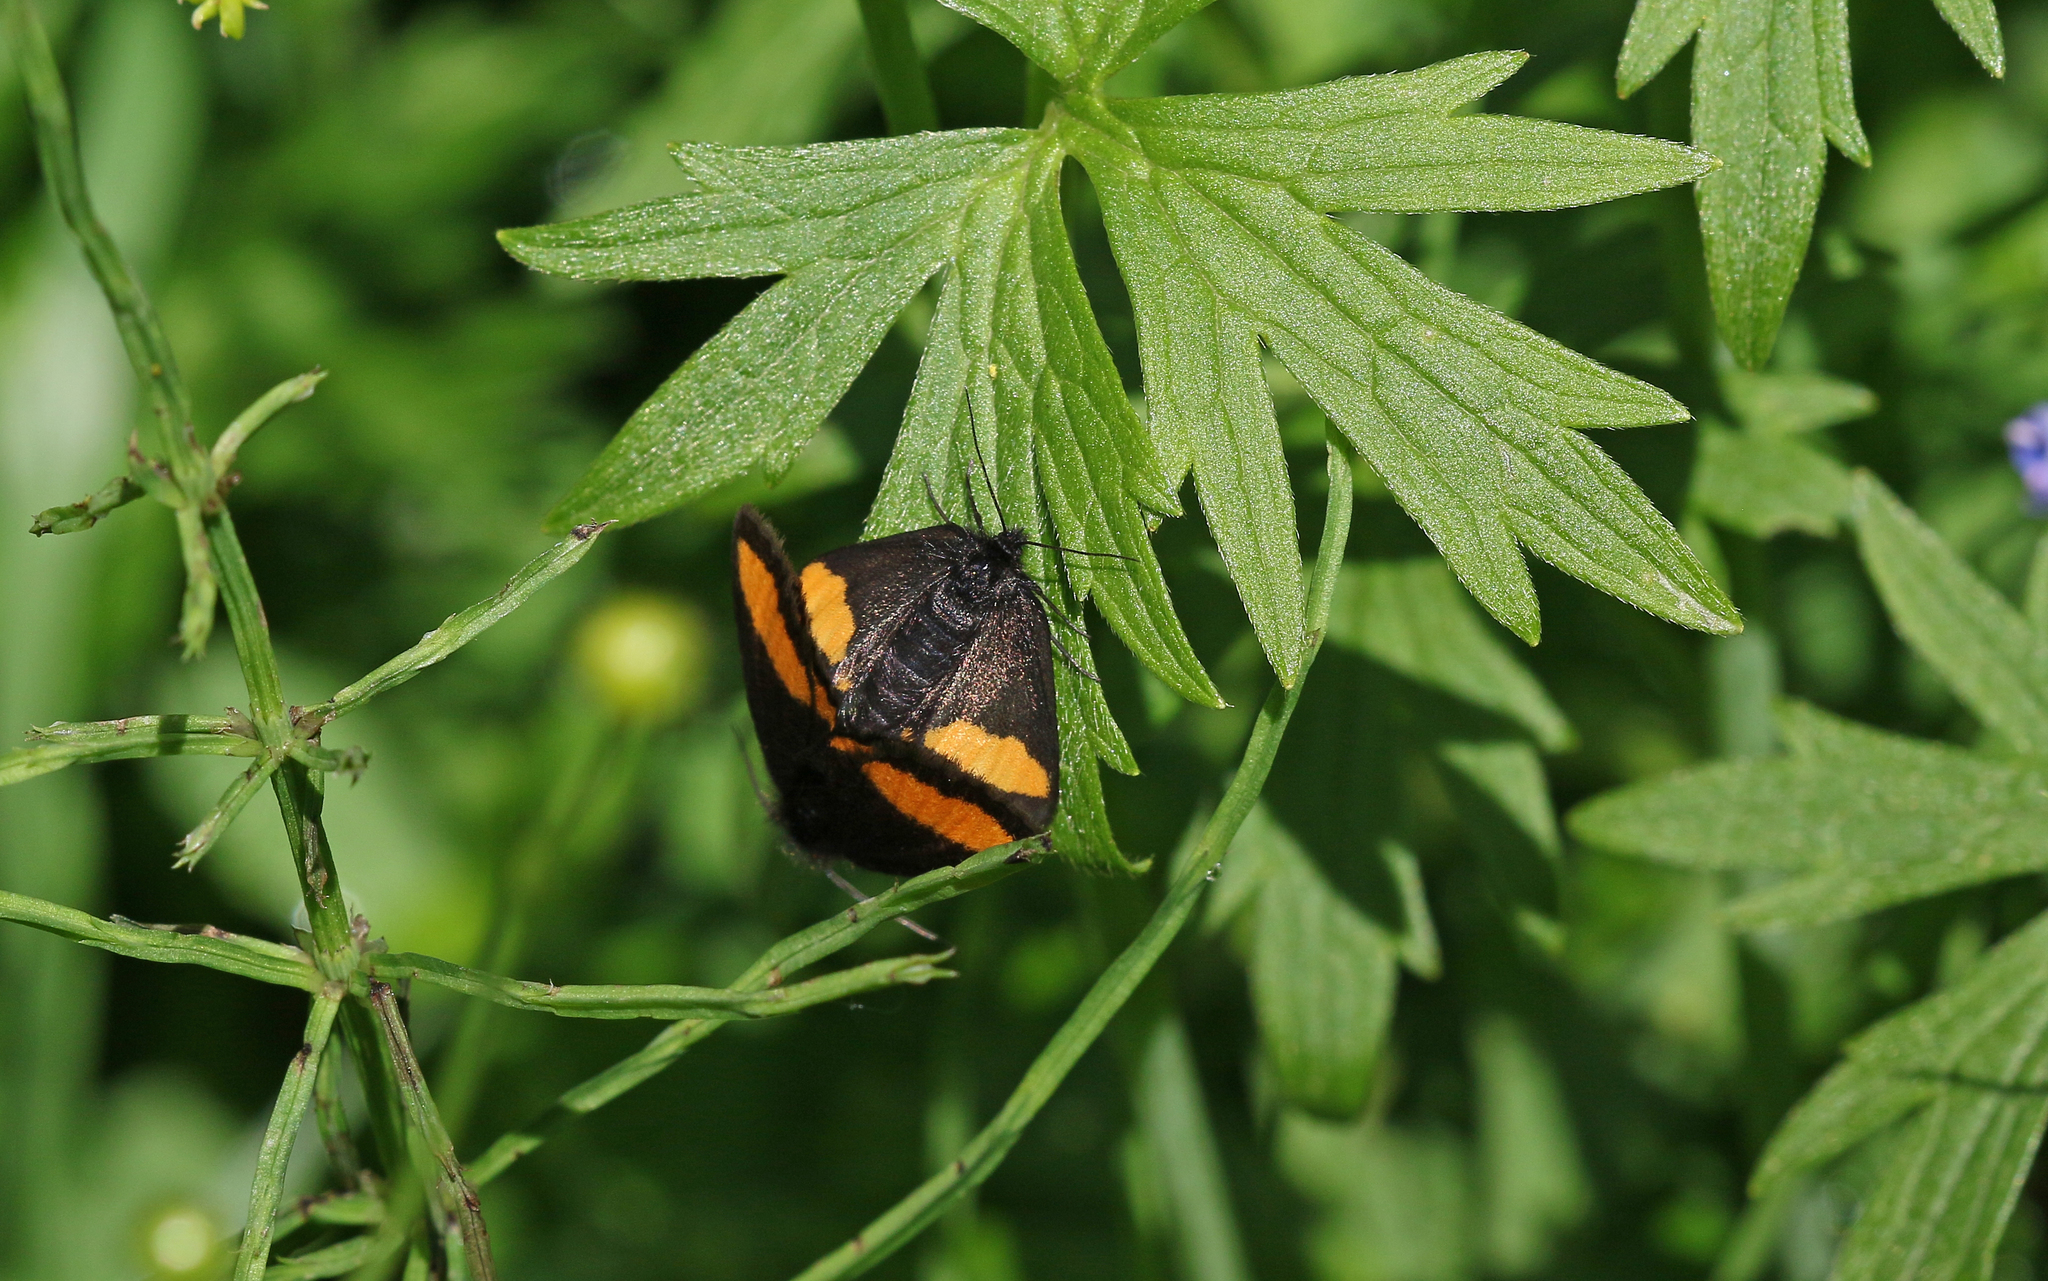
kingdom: Animalia
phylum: Arthropoda
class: Insecta
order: Lepidoptera
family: Geometridae
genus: Psodos
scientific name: Psodos quadrifaria
